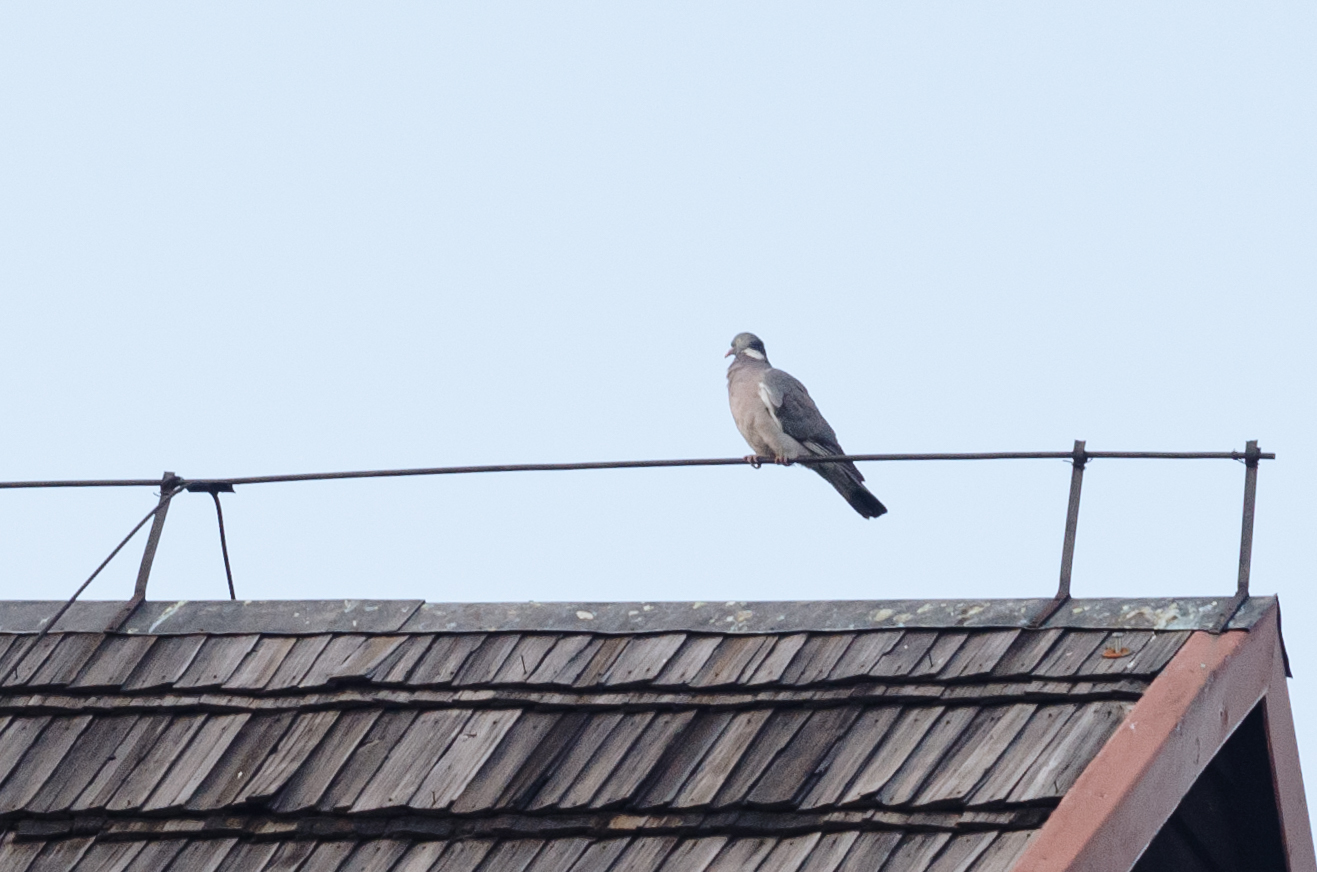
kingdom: Animalia
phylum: Chordata
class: Aves
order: Columbiformes
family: Columbidae
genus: Columba
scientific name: Columba palumbus
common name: Common wood pigeon
